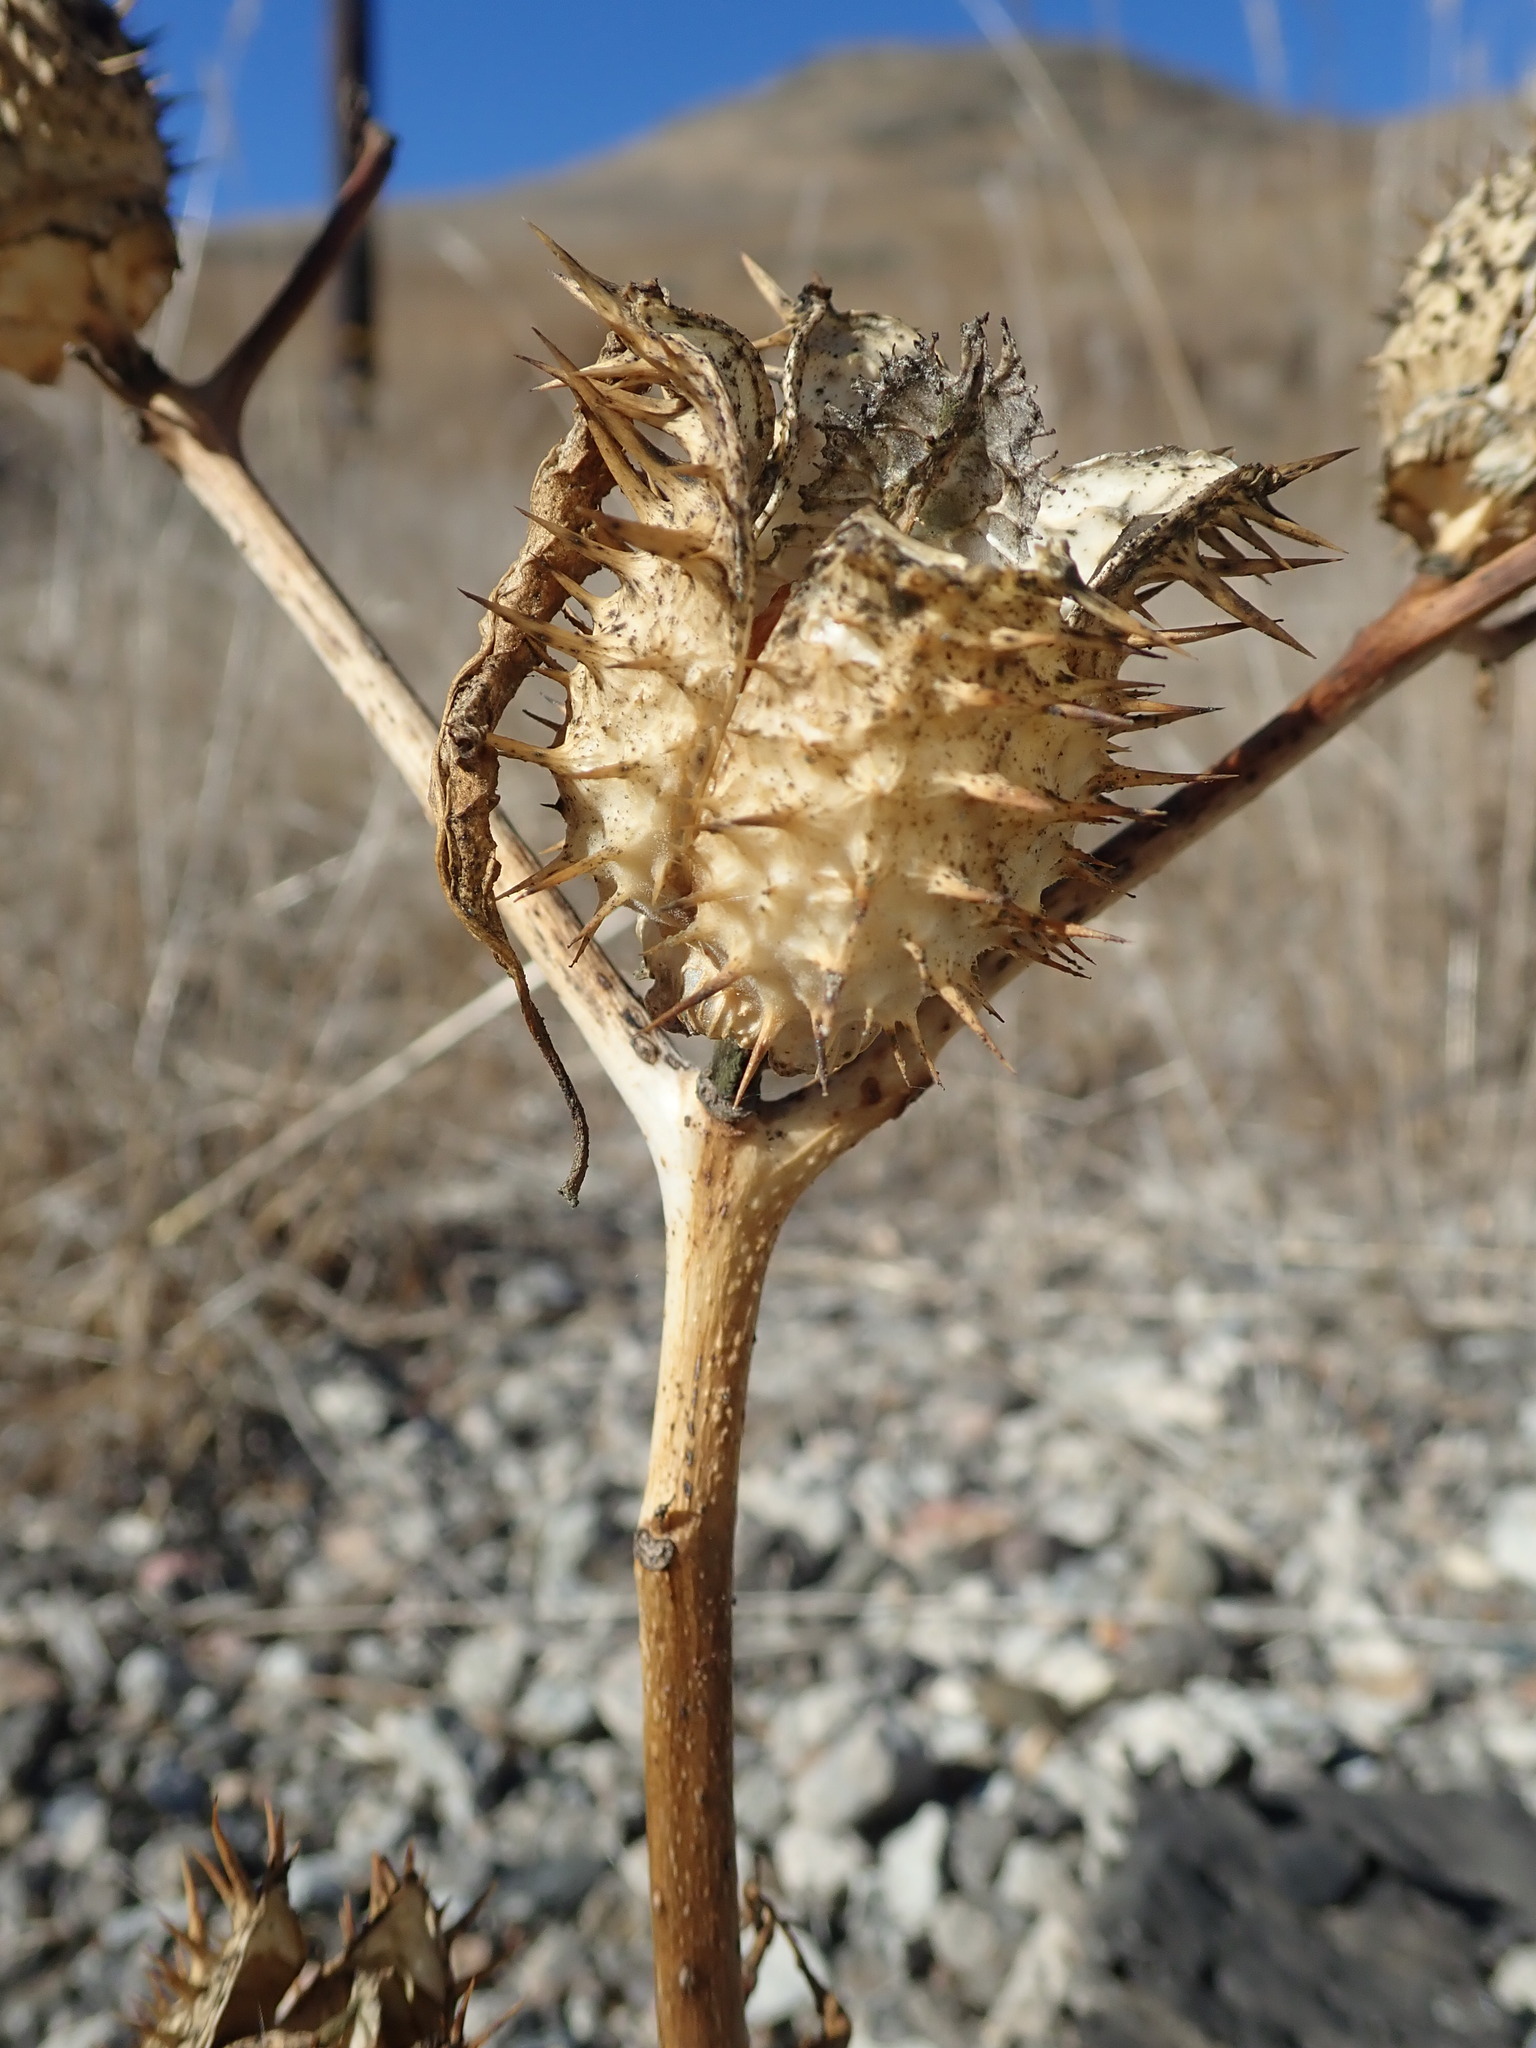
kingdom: Plantae
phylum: Tracheophyta
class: Magnoliopsida
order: Solanales
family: Solanaceae
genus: Datura
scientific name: Datura stramonium
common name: Thorn-apple
